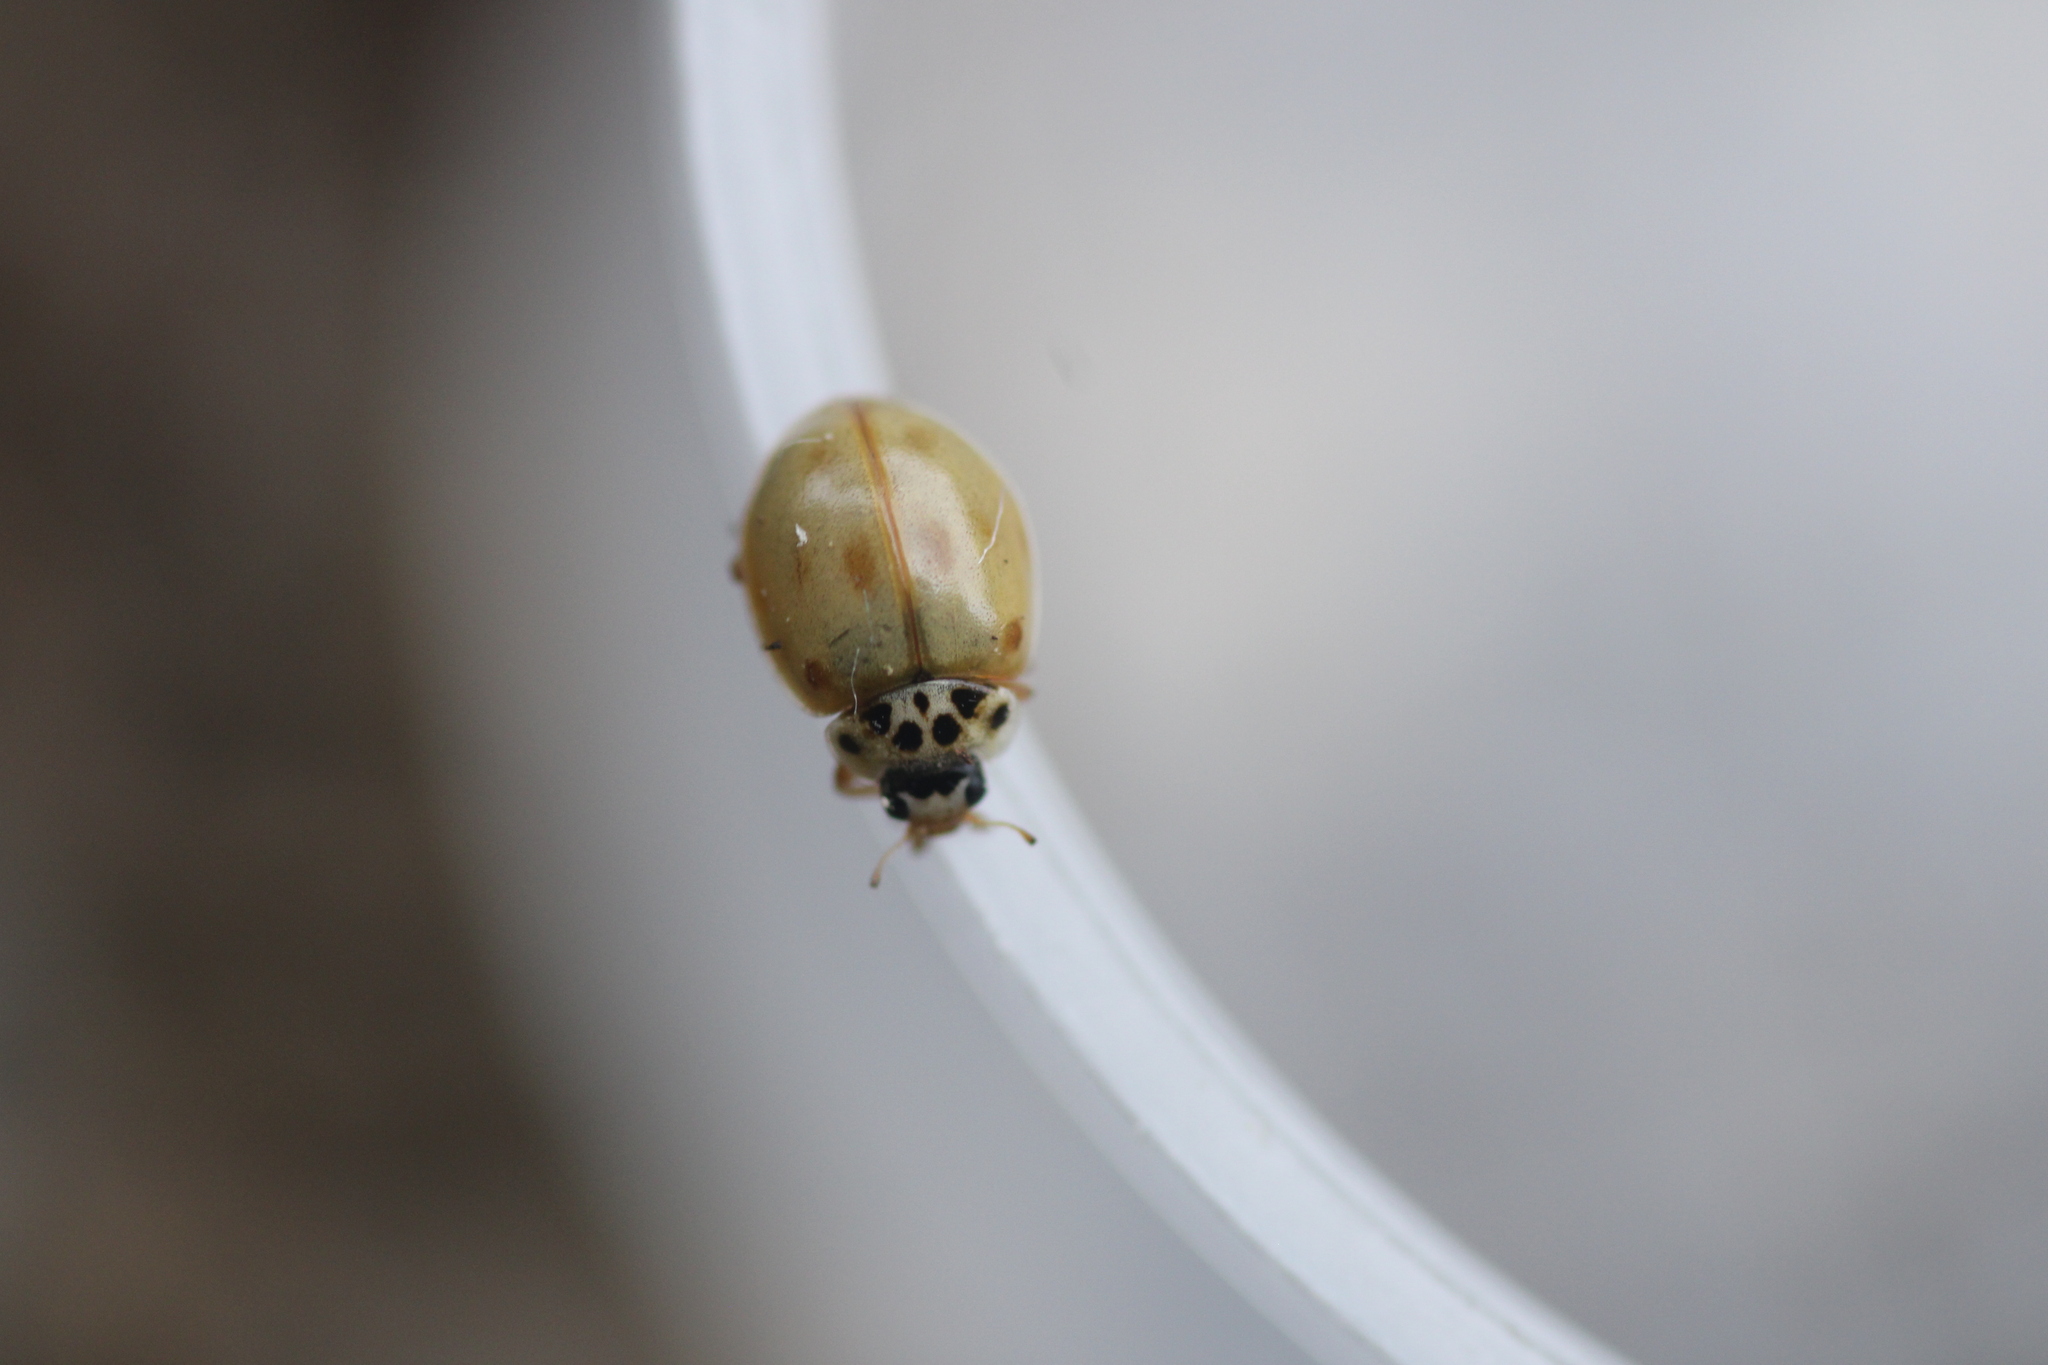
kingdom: Animalia
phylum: Arthropoda
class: Insecta
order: Coleoptera
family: Coccinellidae
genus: Adalia
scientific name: Adalia decempunctata
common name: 10-spot ladybird
